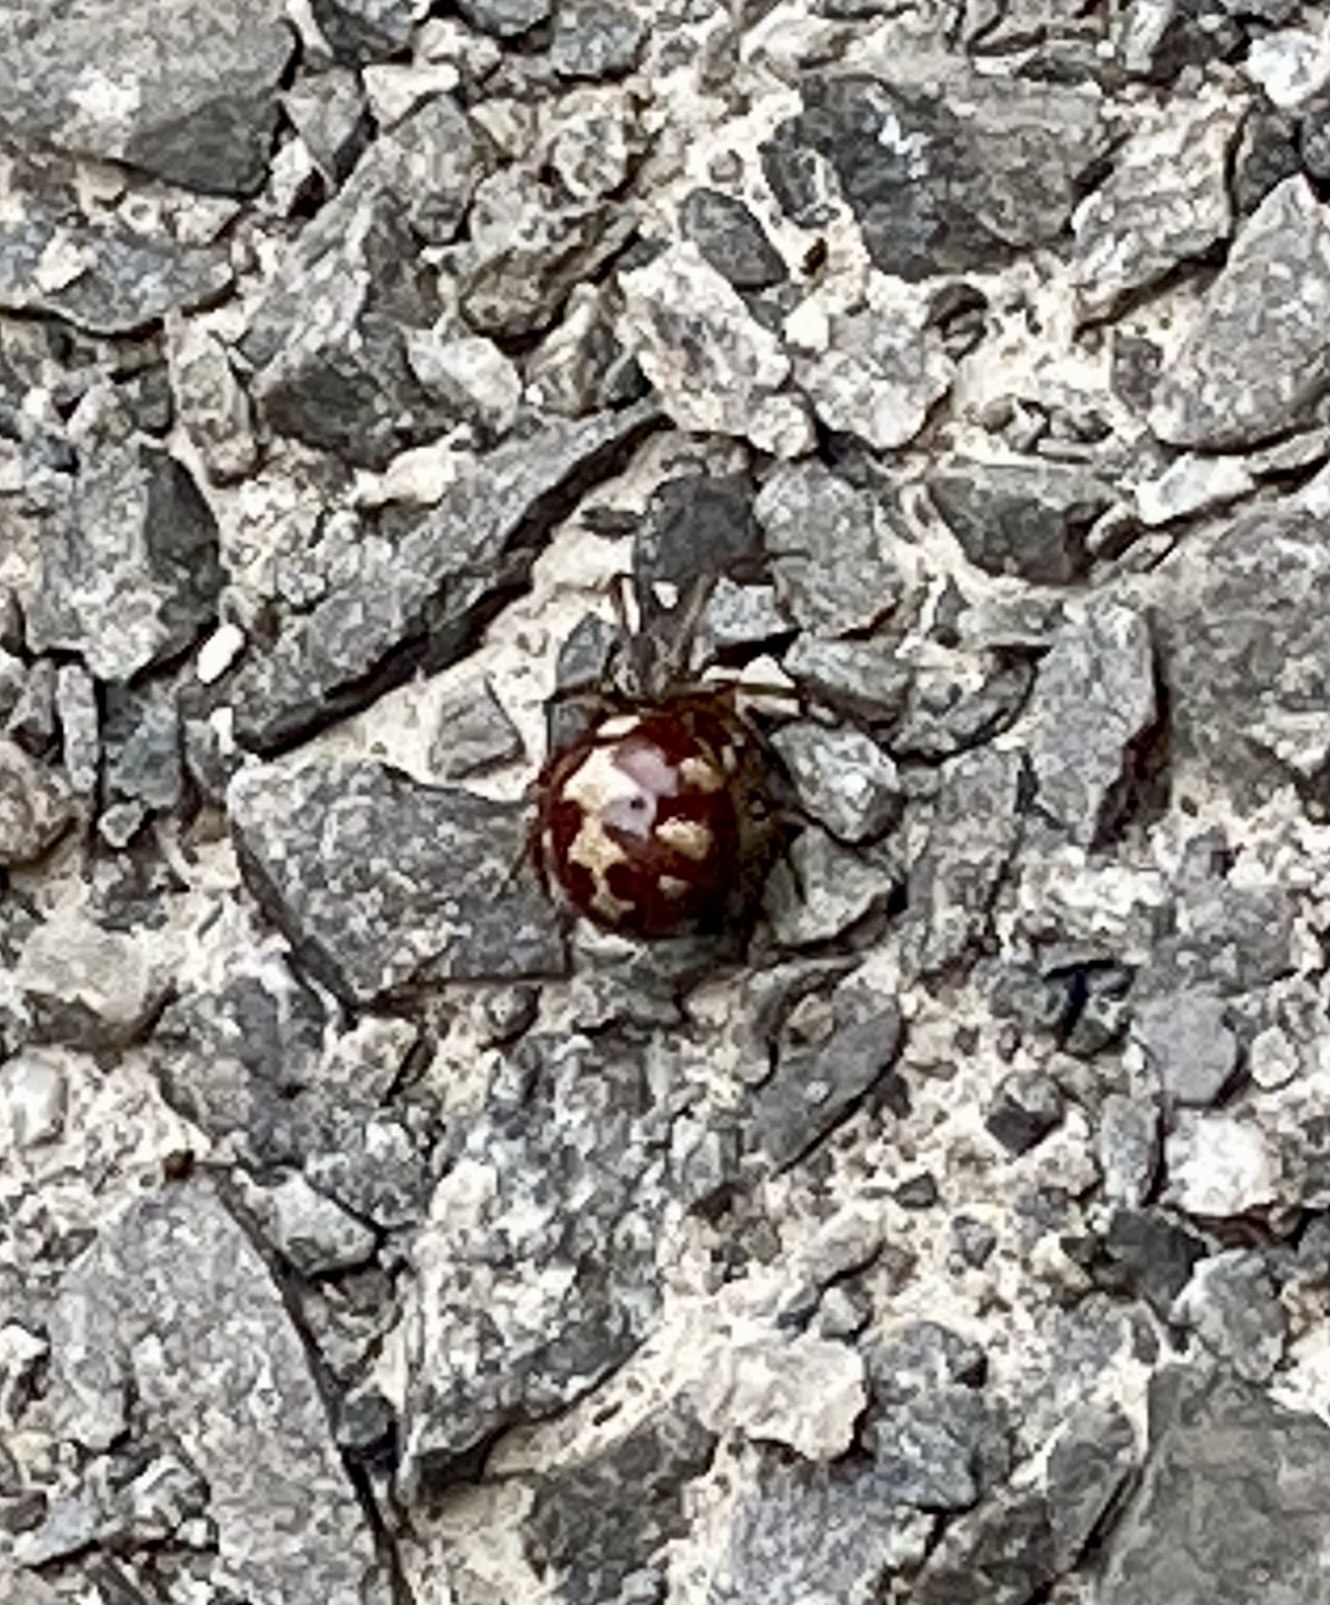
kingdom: Animalia
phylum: Arthropoda
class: Arachnida
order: Araneae
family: Theridiidae
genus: Steatoda
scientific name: Steatoda triangulosa
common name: Triangulate bud spider
